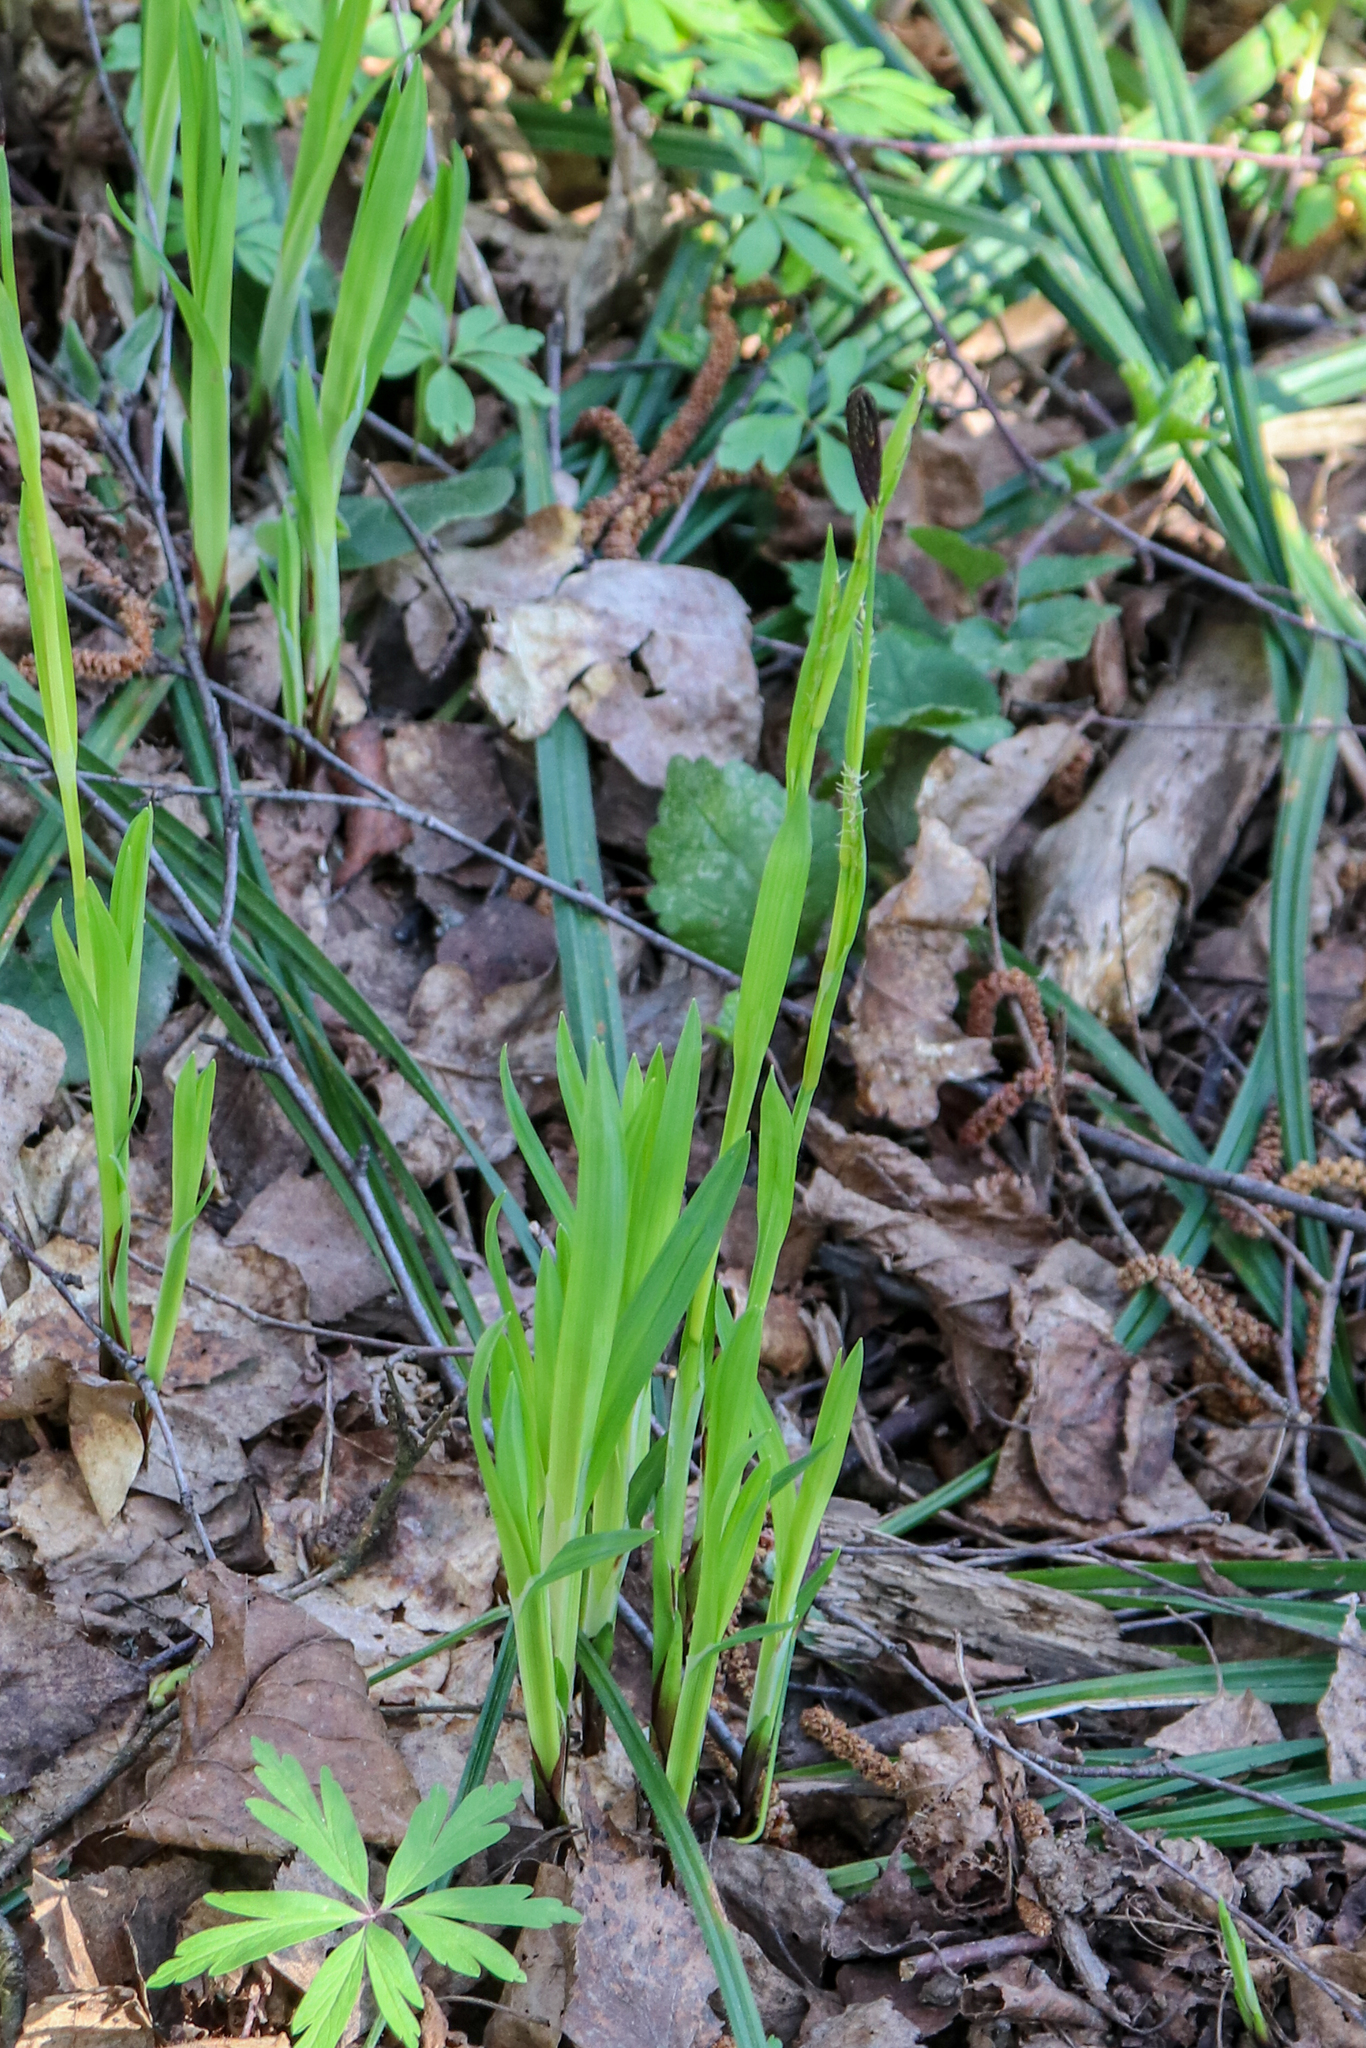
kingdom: Plantae
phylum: Tracheophyta
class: Liliopsida
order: Poales
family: Cyperaceae
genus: Carex
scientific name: Carex pilosa
